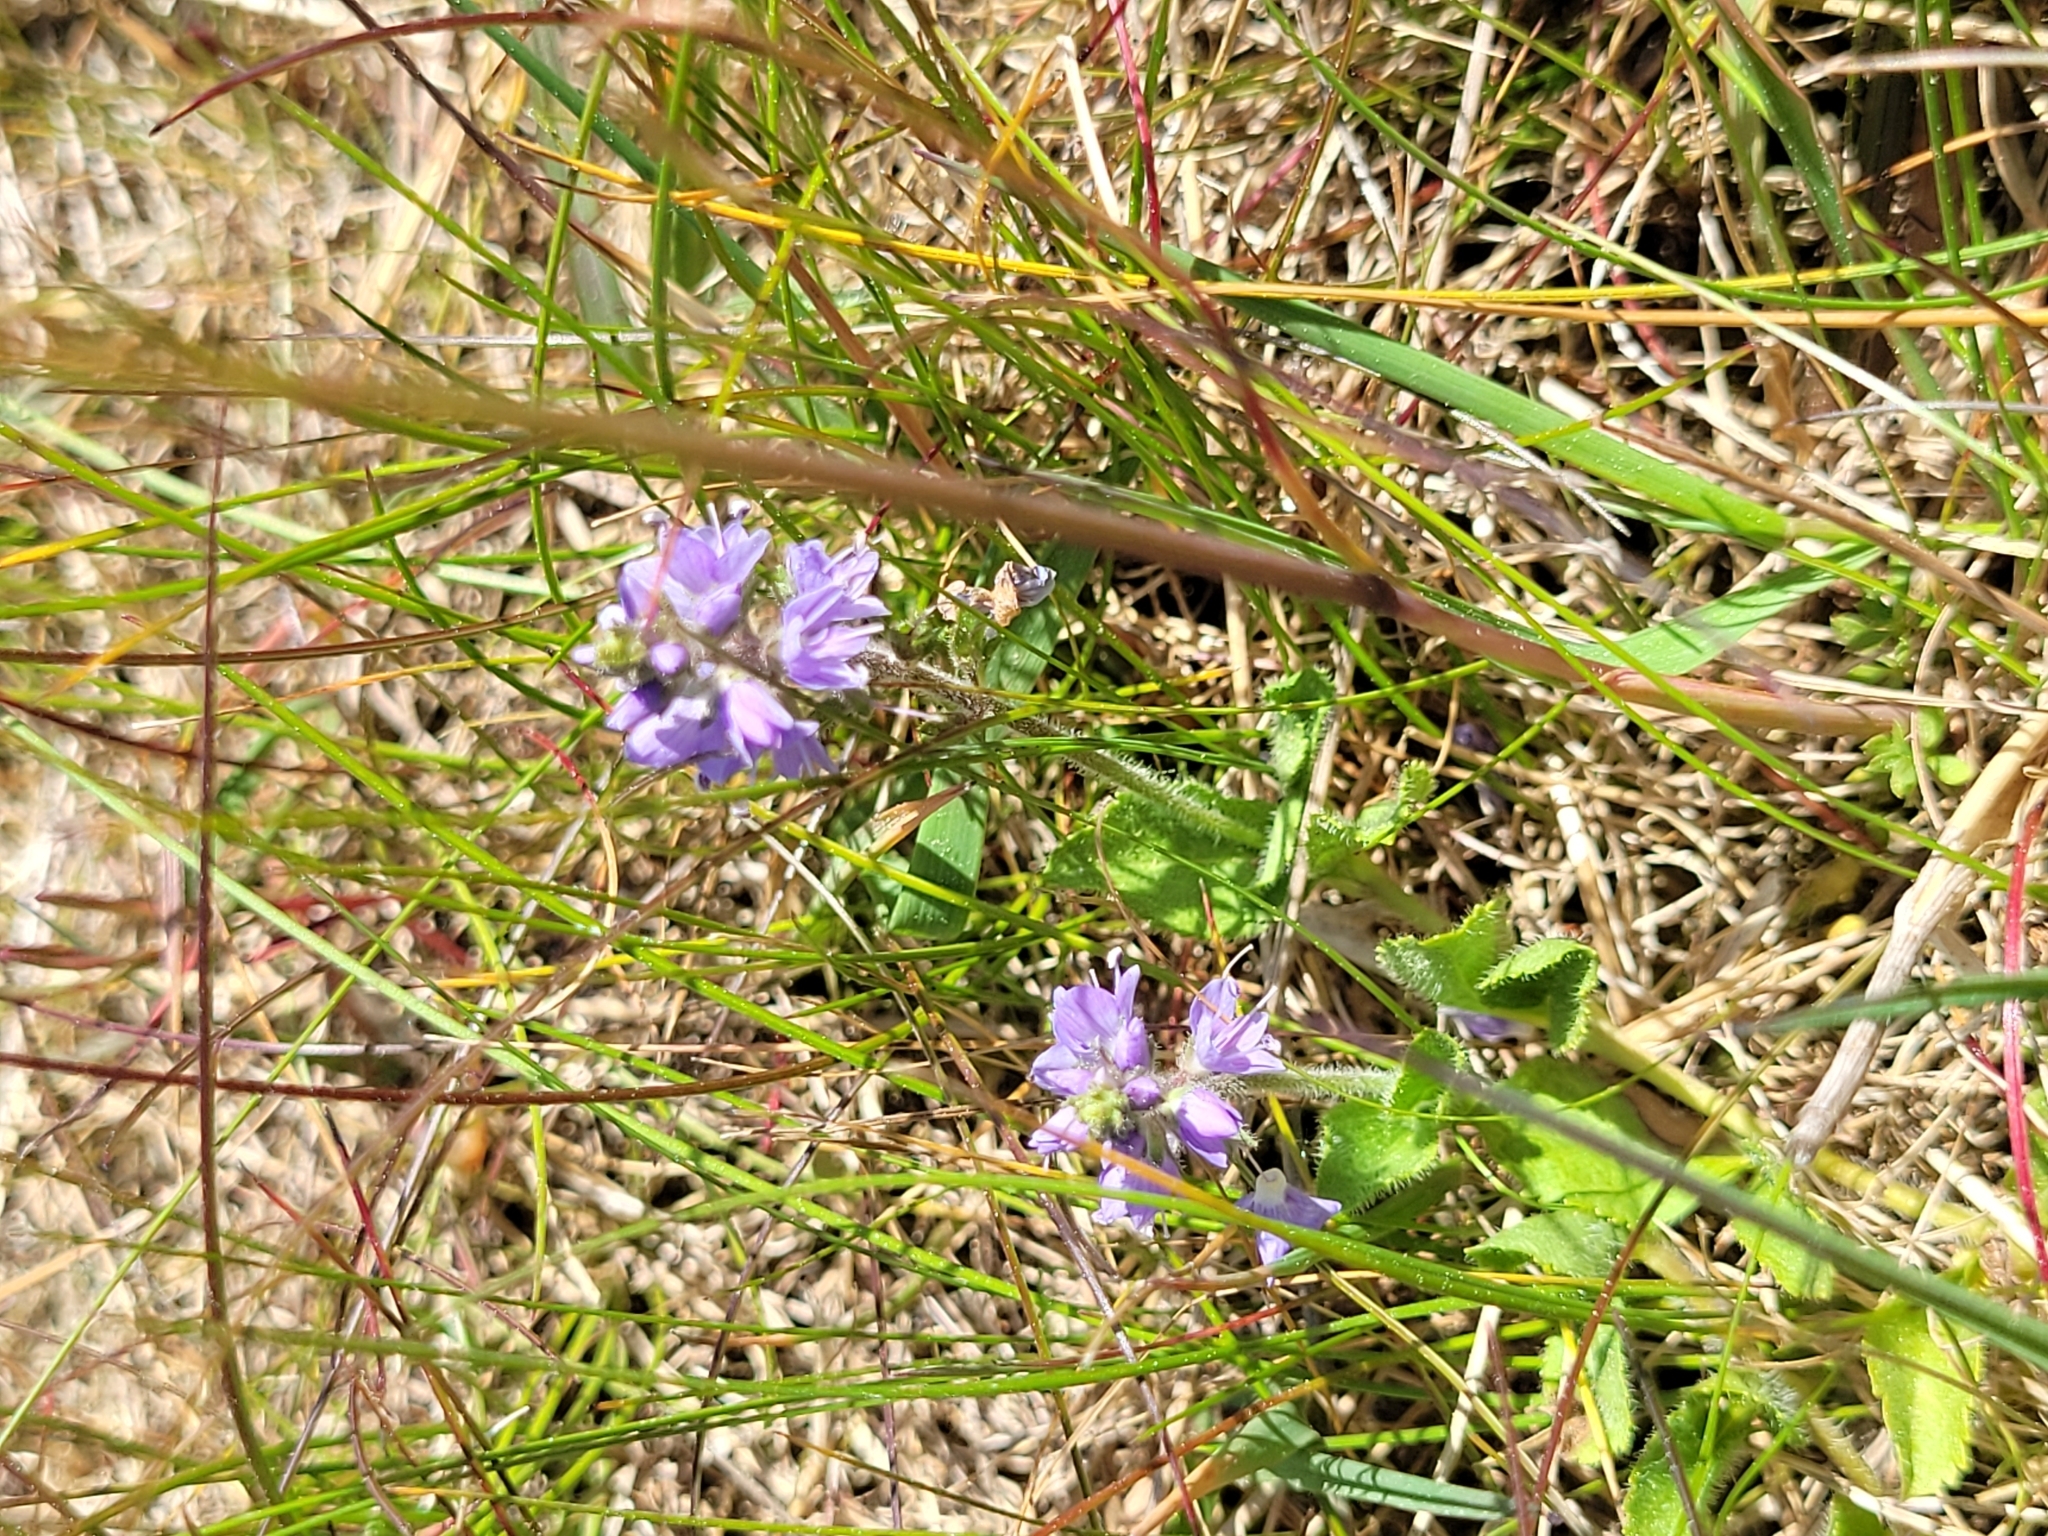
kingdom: Plantae
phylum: Tracheophyta
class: Magnoliopsida
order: Lamiales
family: Plantaginaceae
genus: Veronica
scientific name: Veronica officinalis
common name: Common speedwell
